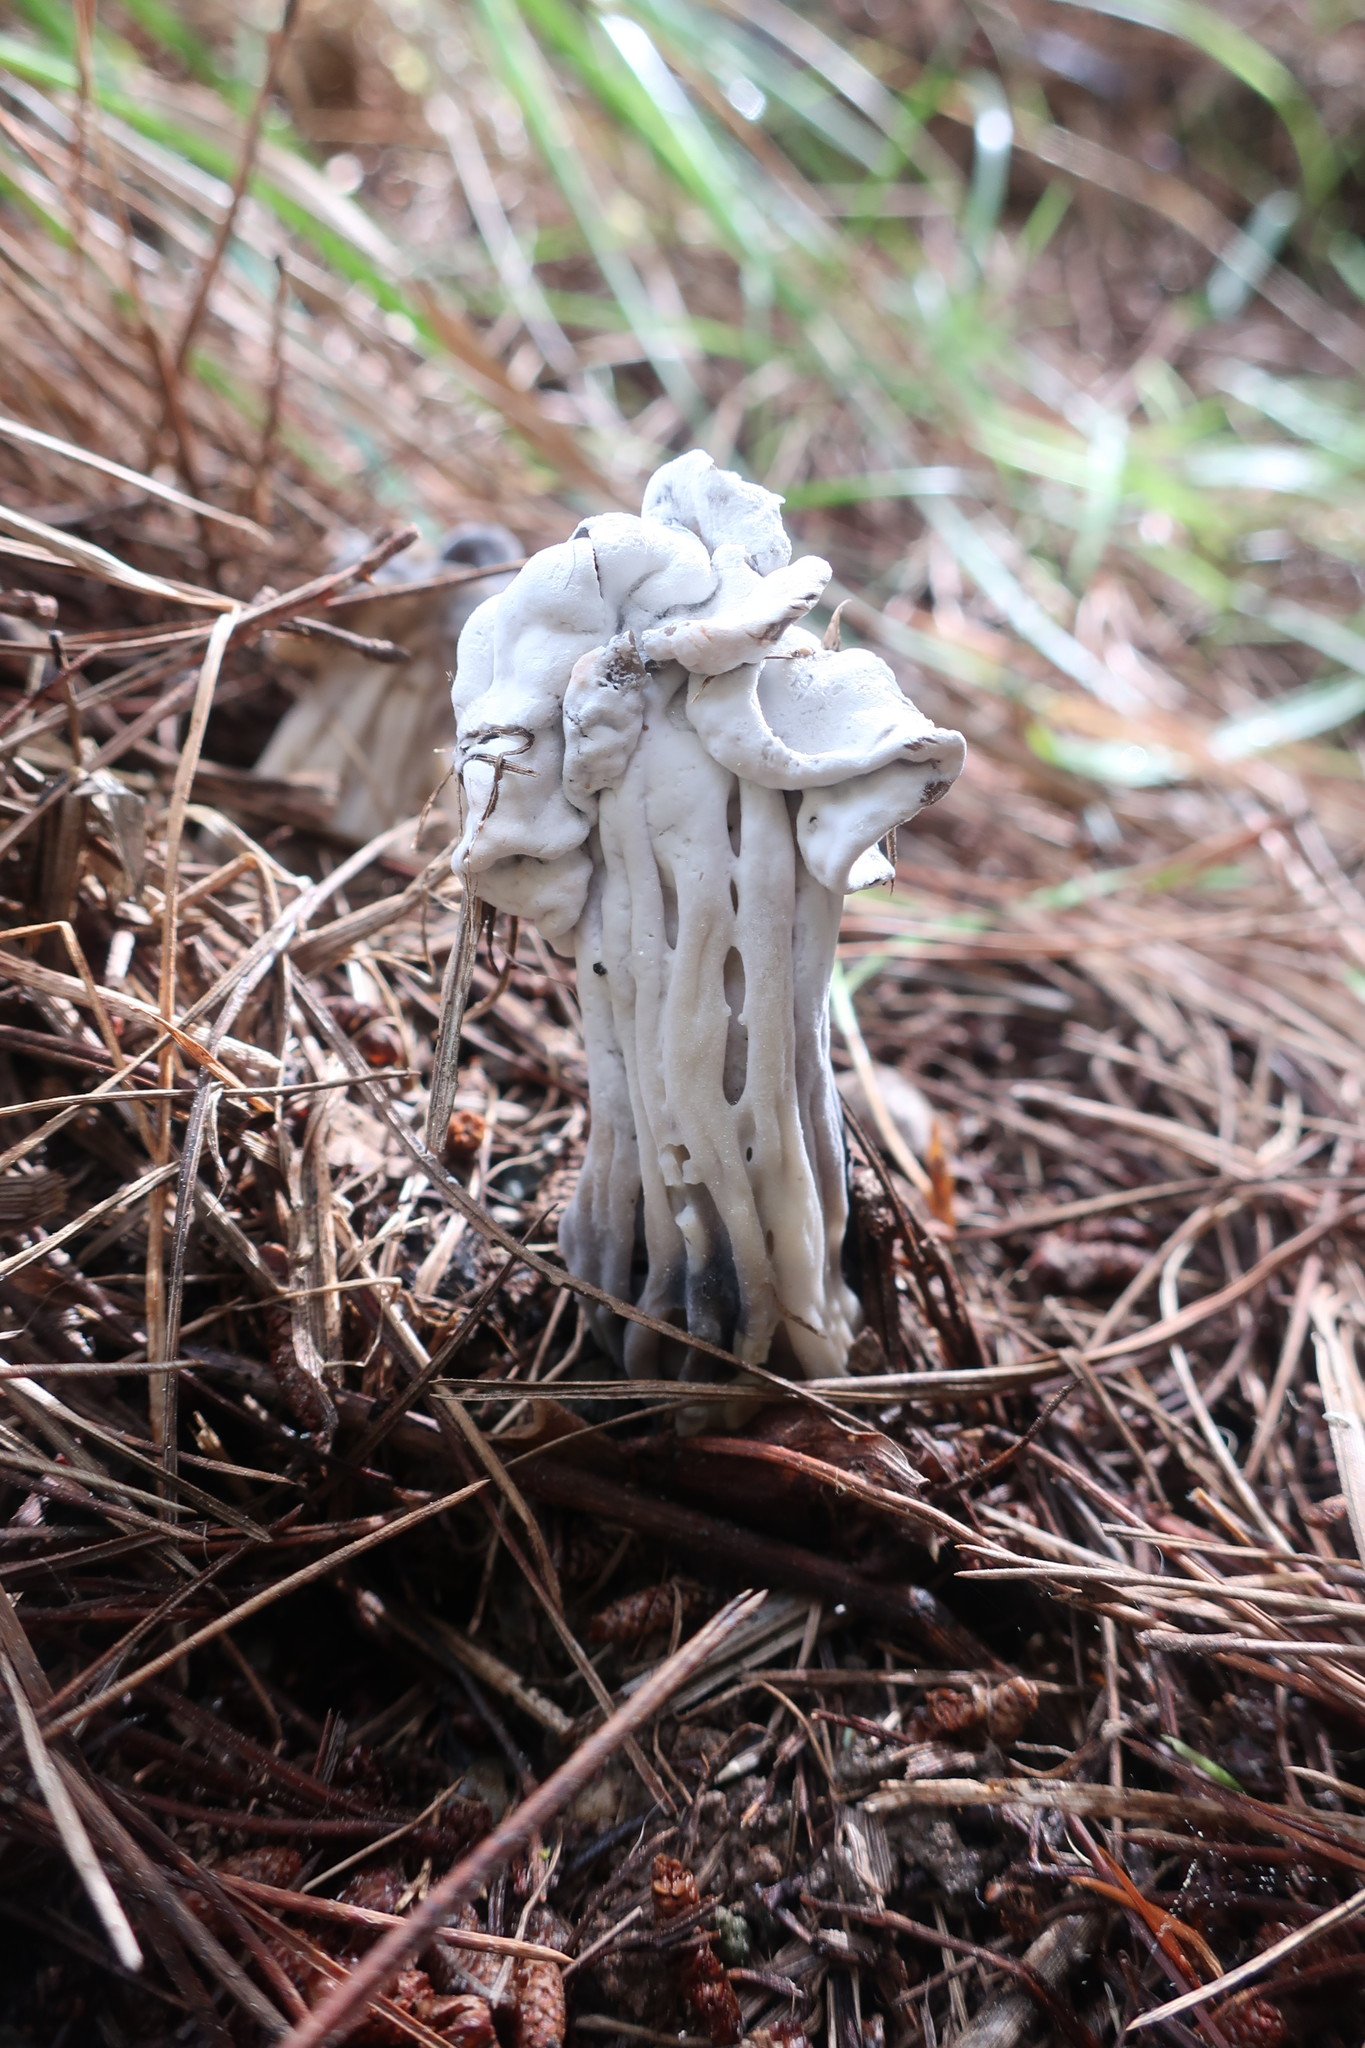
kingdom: Fungi
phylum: Ascomycota
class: Pezizomycetes
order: Pezizales
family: Helvellaceae
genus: Helvella
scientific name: Helvella vespertina
